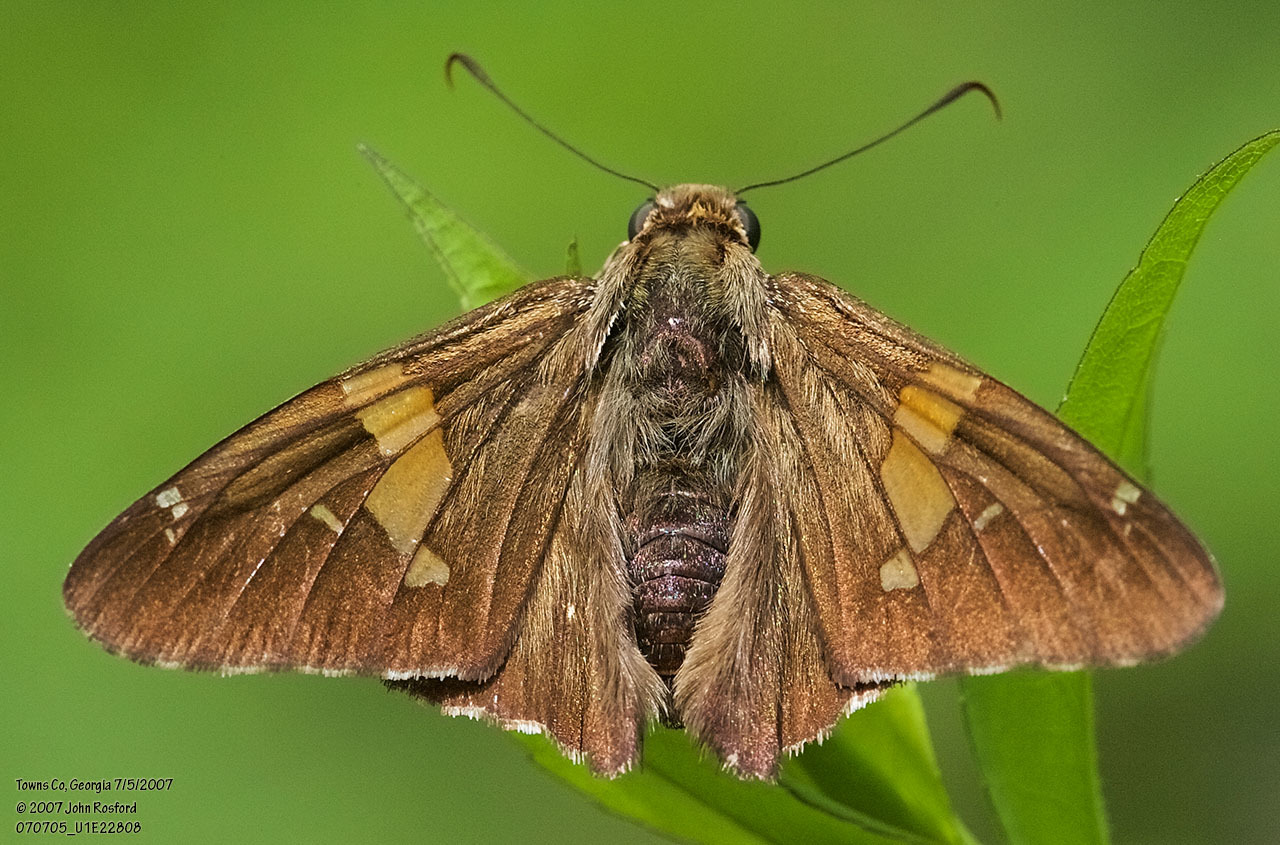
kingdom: Animalia
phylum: Arthropoda
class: Insecta
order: Lepidoptera
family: Hesperiidae
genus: Epargyreus
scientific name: Epargyreus clarus
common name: Silver-spotted skipper
